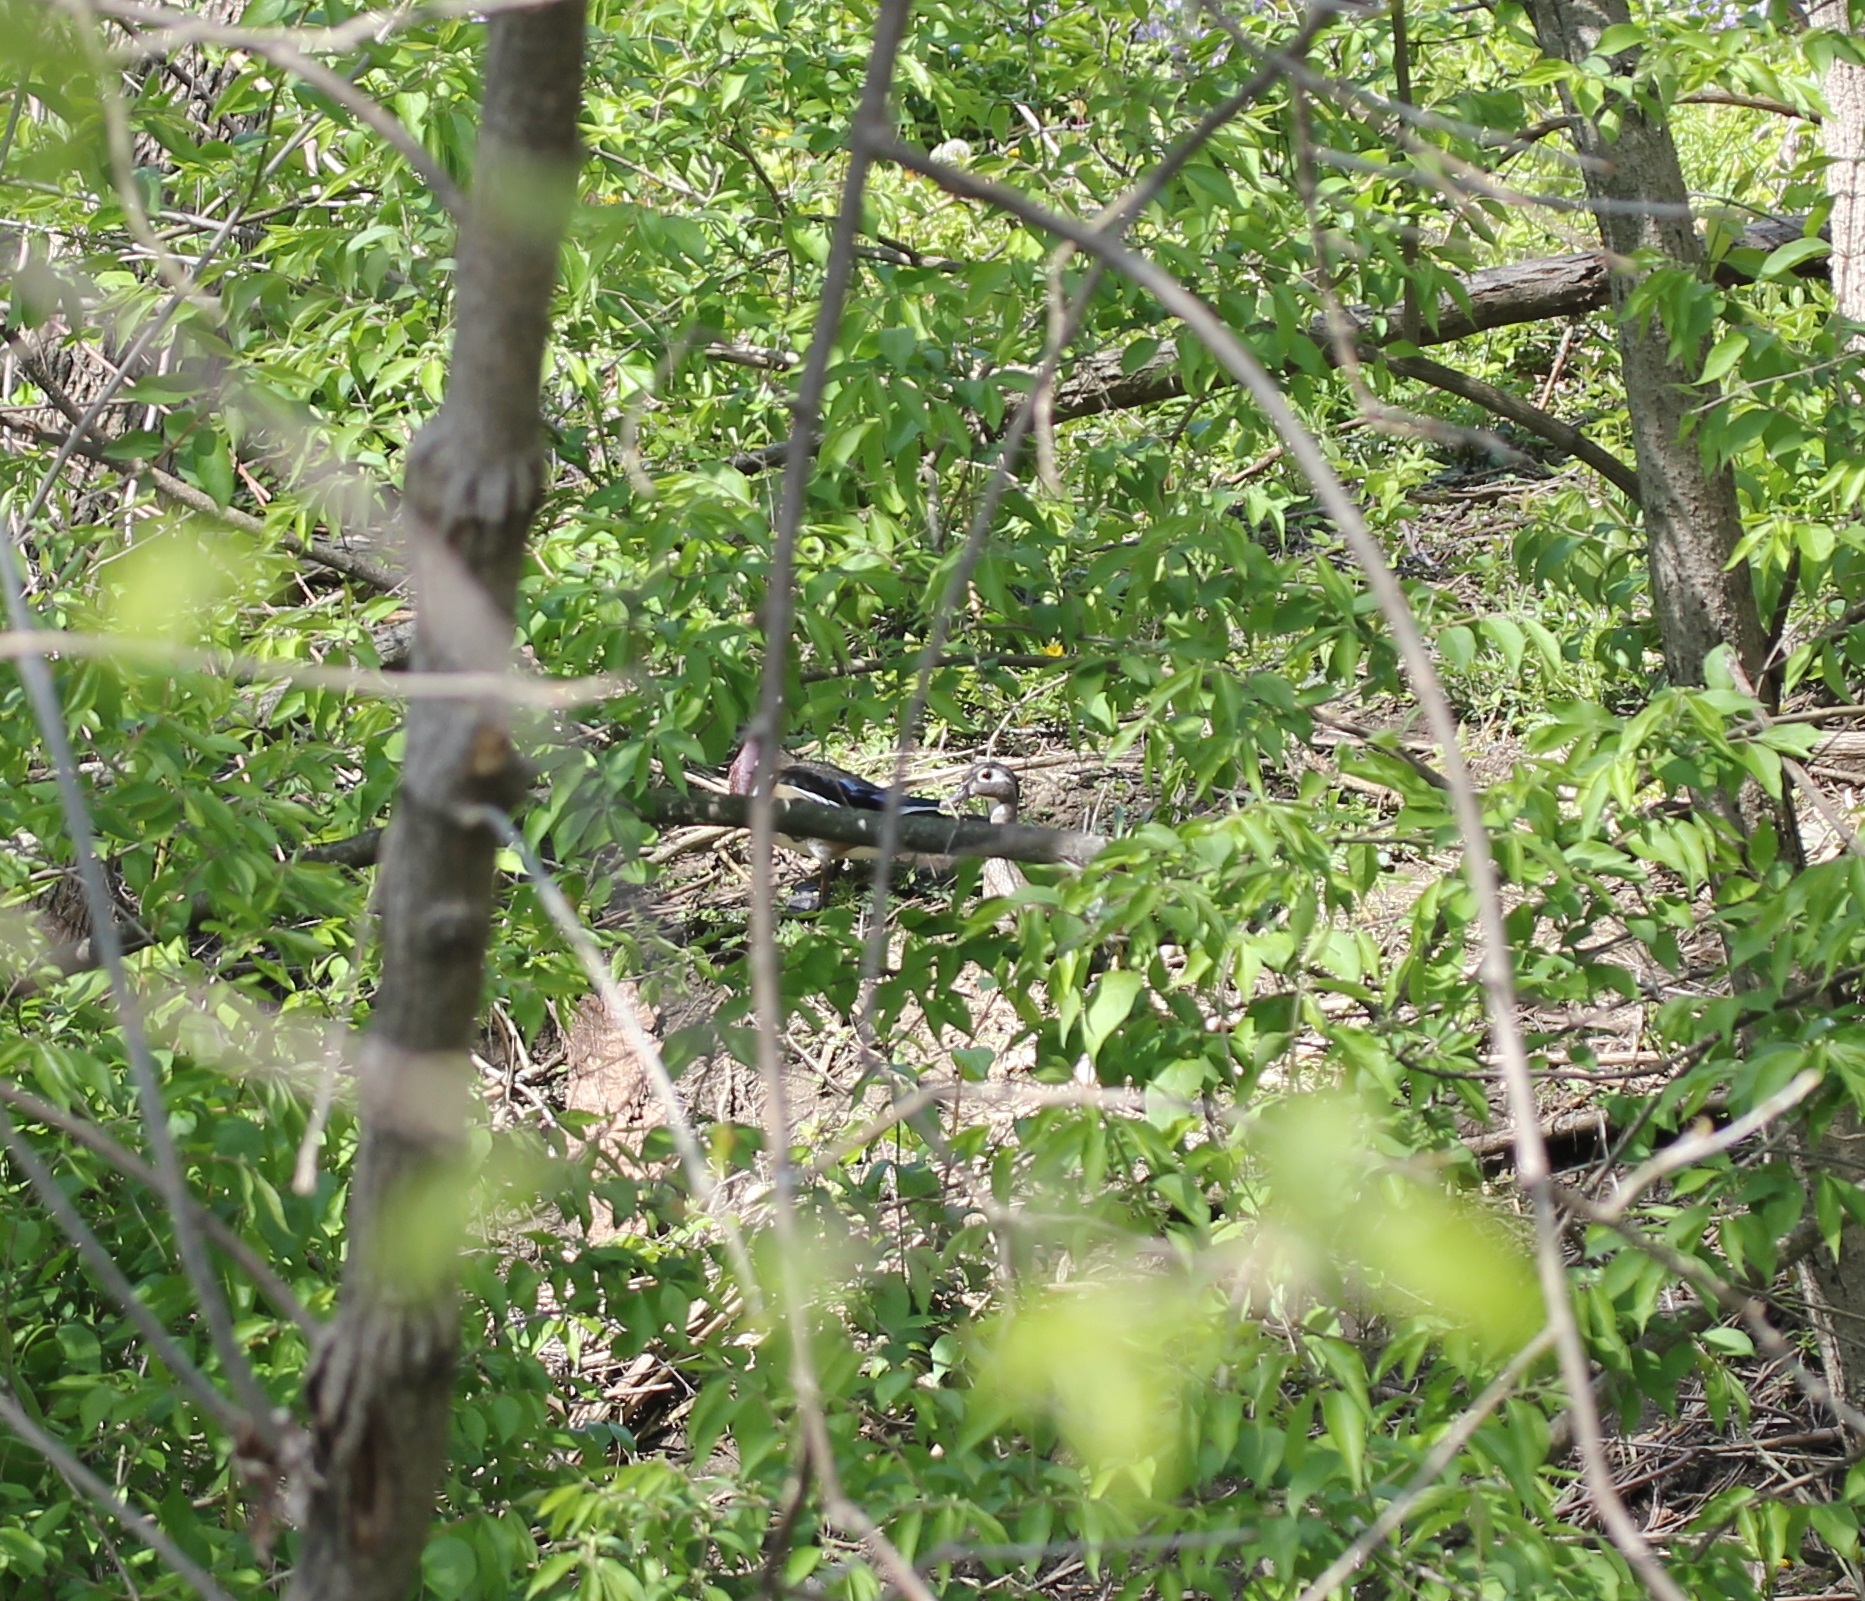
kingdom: Animalia
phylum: Chordata
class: Aves
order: Anseriformes
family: Anatidae
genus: Aix
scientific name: Aix sponsa
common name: Wood duck
